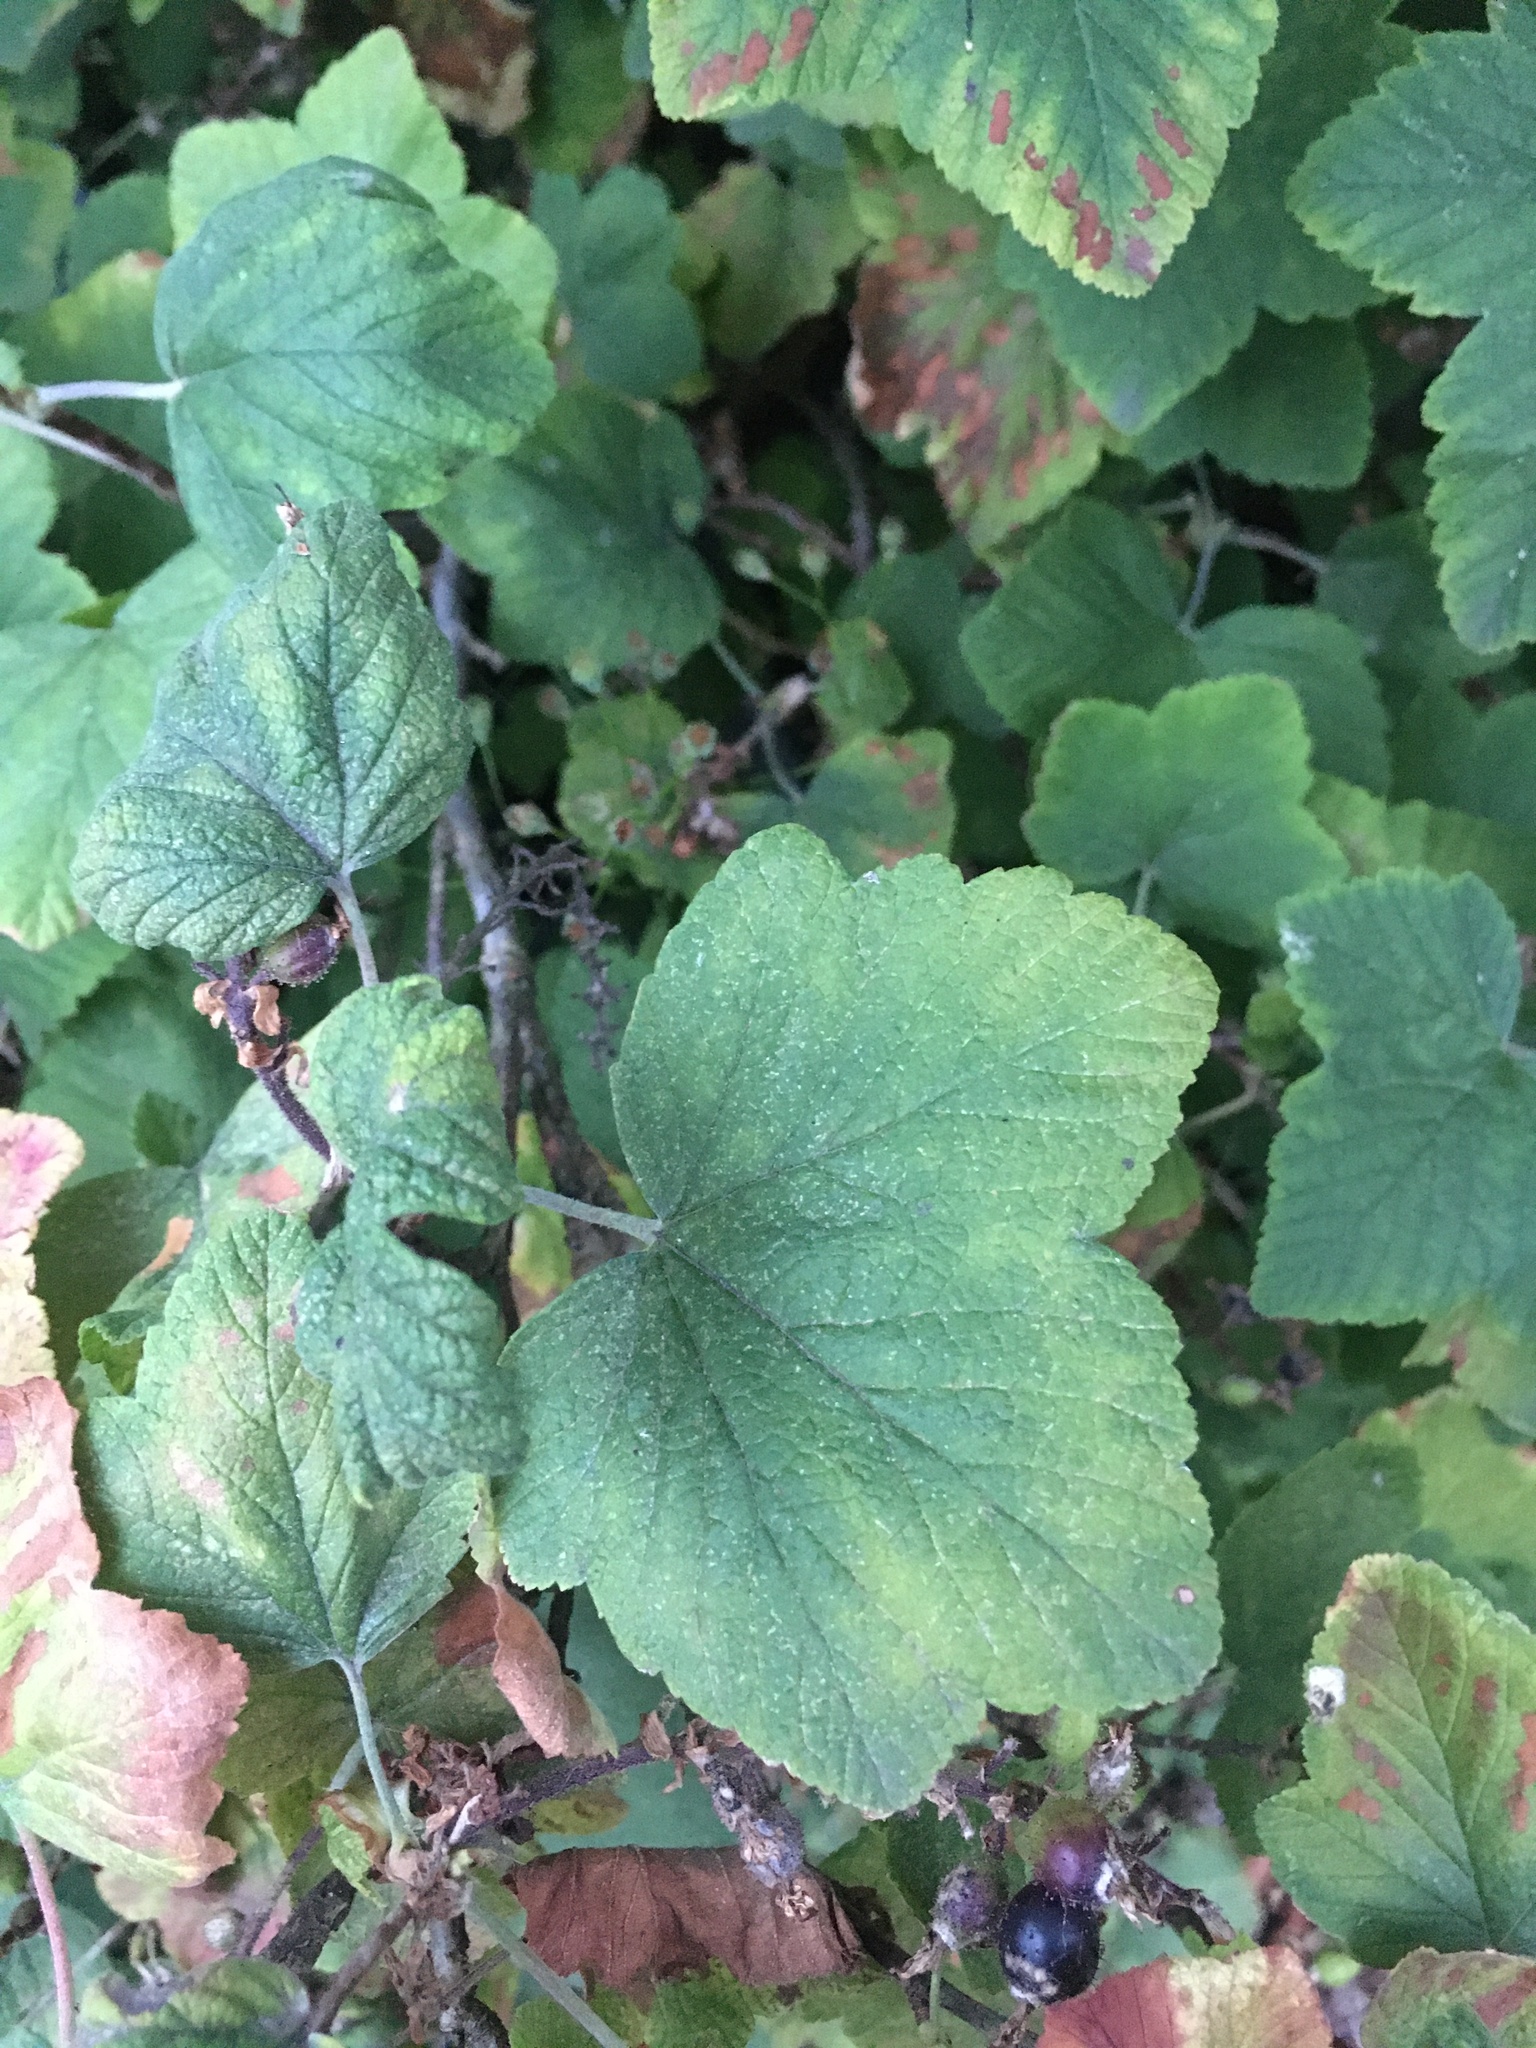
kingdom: Plantae
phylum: Tracheophyta
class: Magnoliopsida
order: Saxifragales
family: Grossulariaceae
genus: Ribes
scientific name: Ribes sanguineum
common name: Flowering currant
